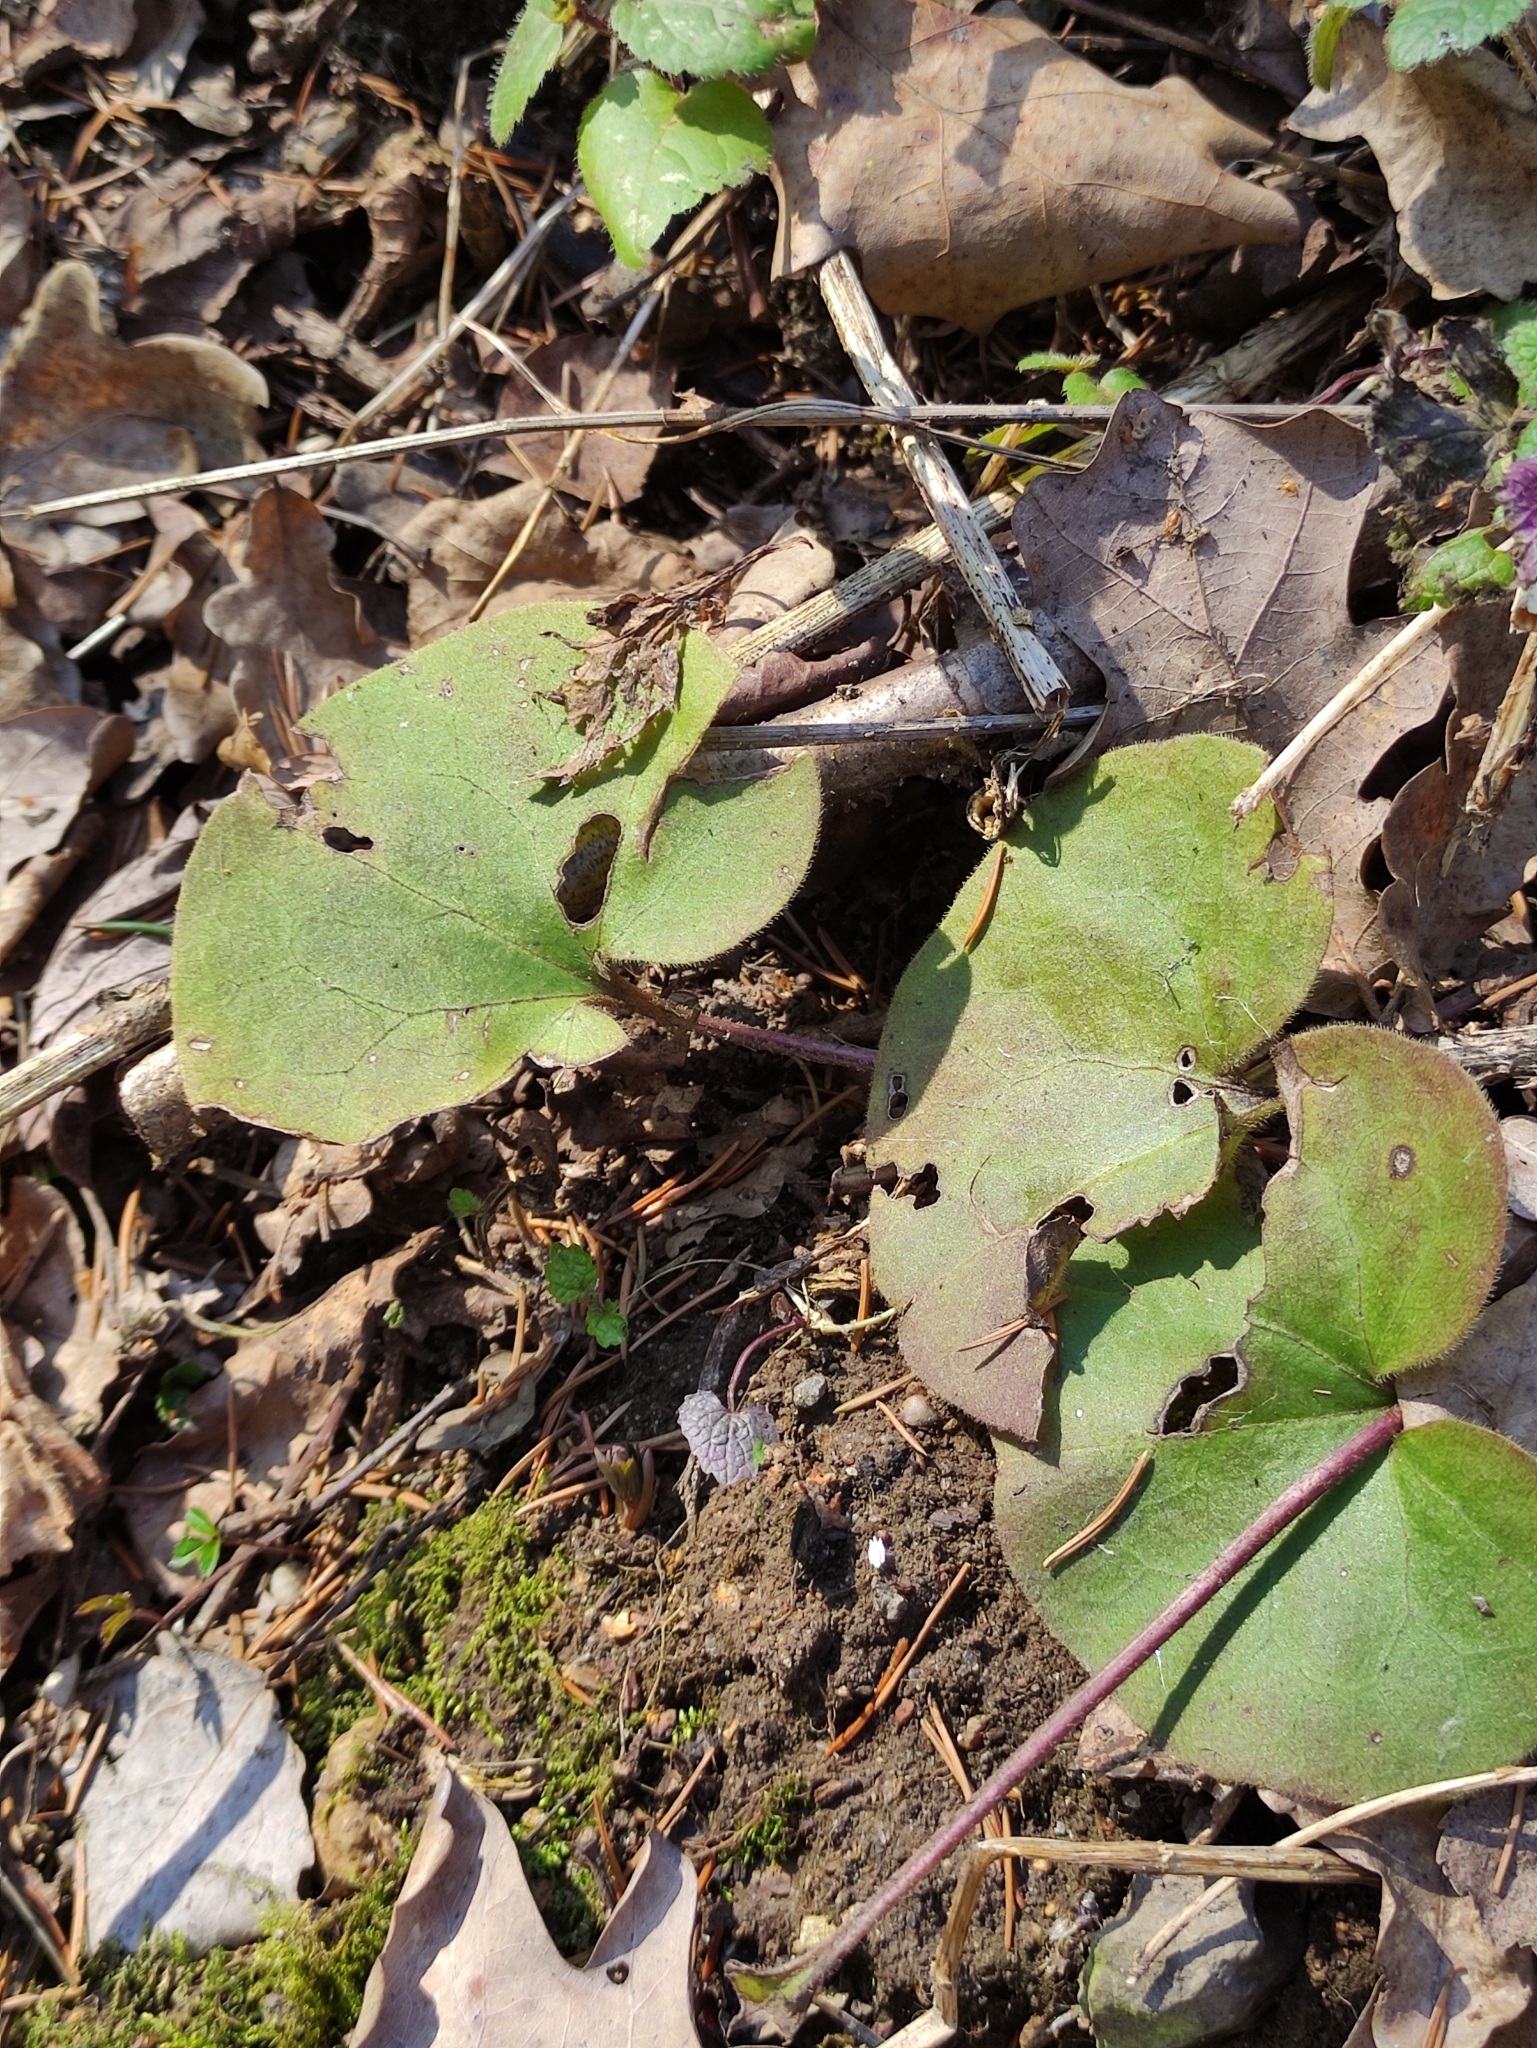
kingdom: Plantae
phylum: Tracheophyta
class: Magnoliopsida
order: Piperales
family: Aristolochiaceae
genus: Asarum
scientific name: Asarum europaeum
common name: Asarabacca
